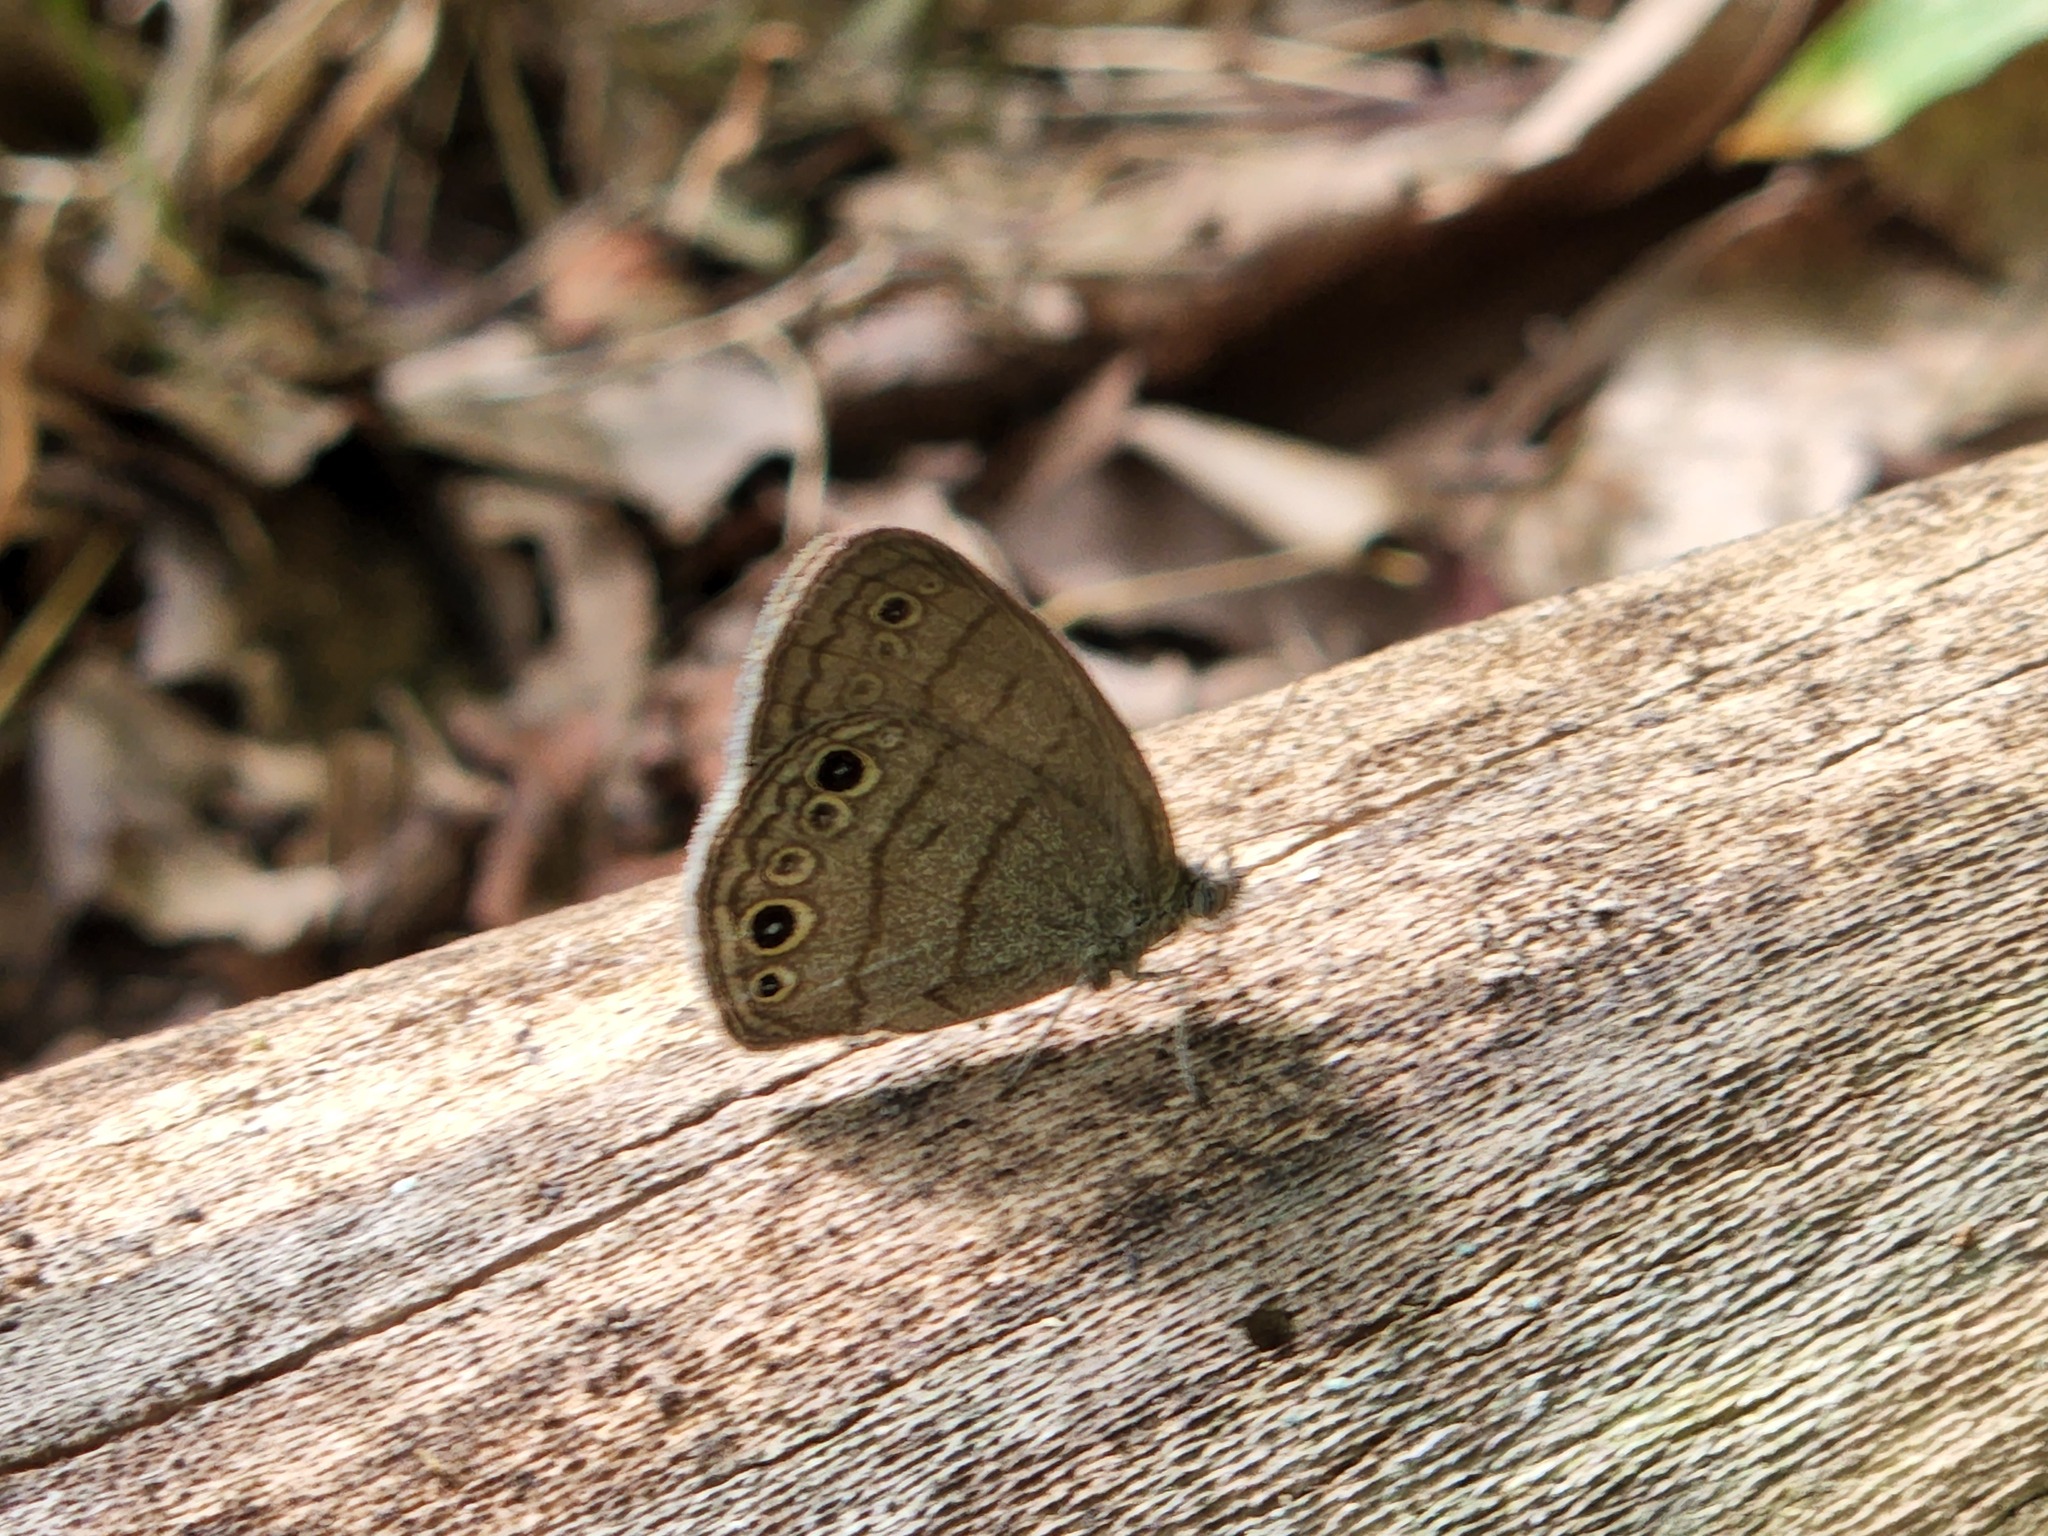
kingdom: Animalia
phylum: Arthropoda
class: Insecta
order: Lepidoptera
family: Nymphalidae
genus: Hermeuptychia
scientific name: Hermeuptychia hermes
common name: Hermes satyr
